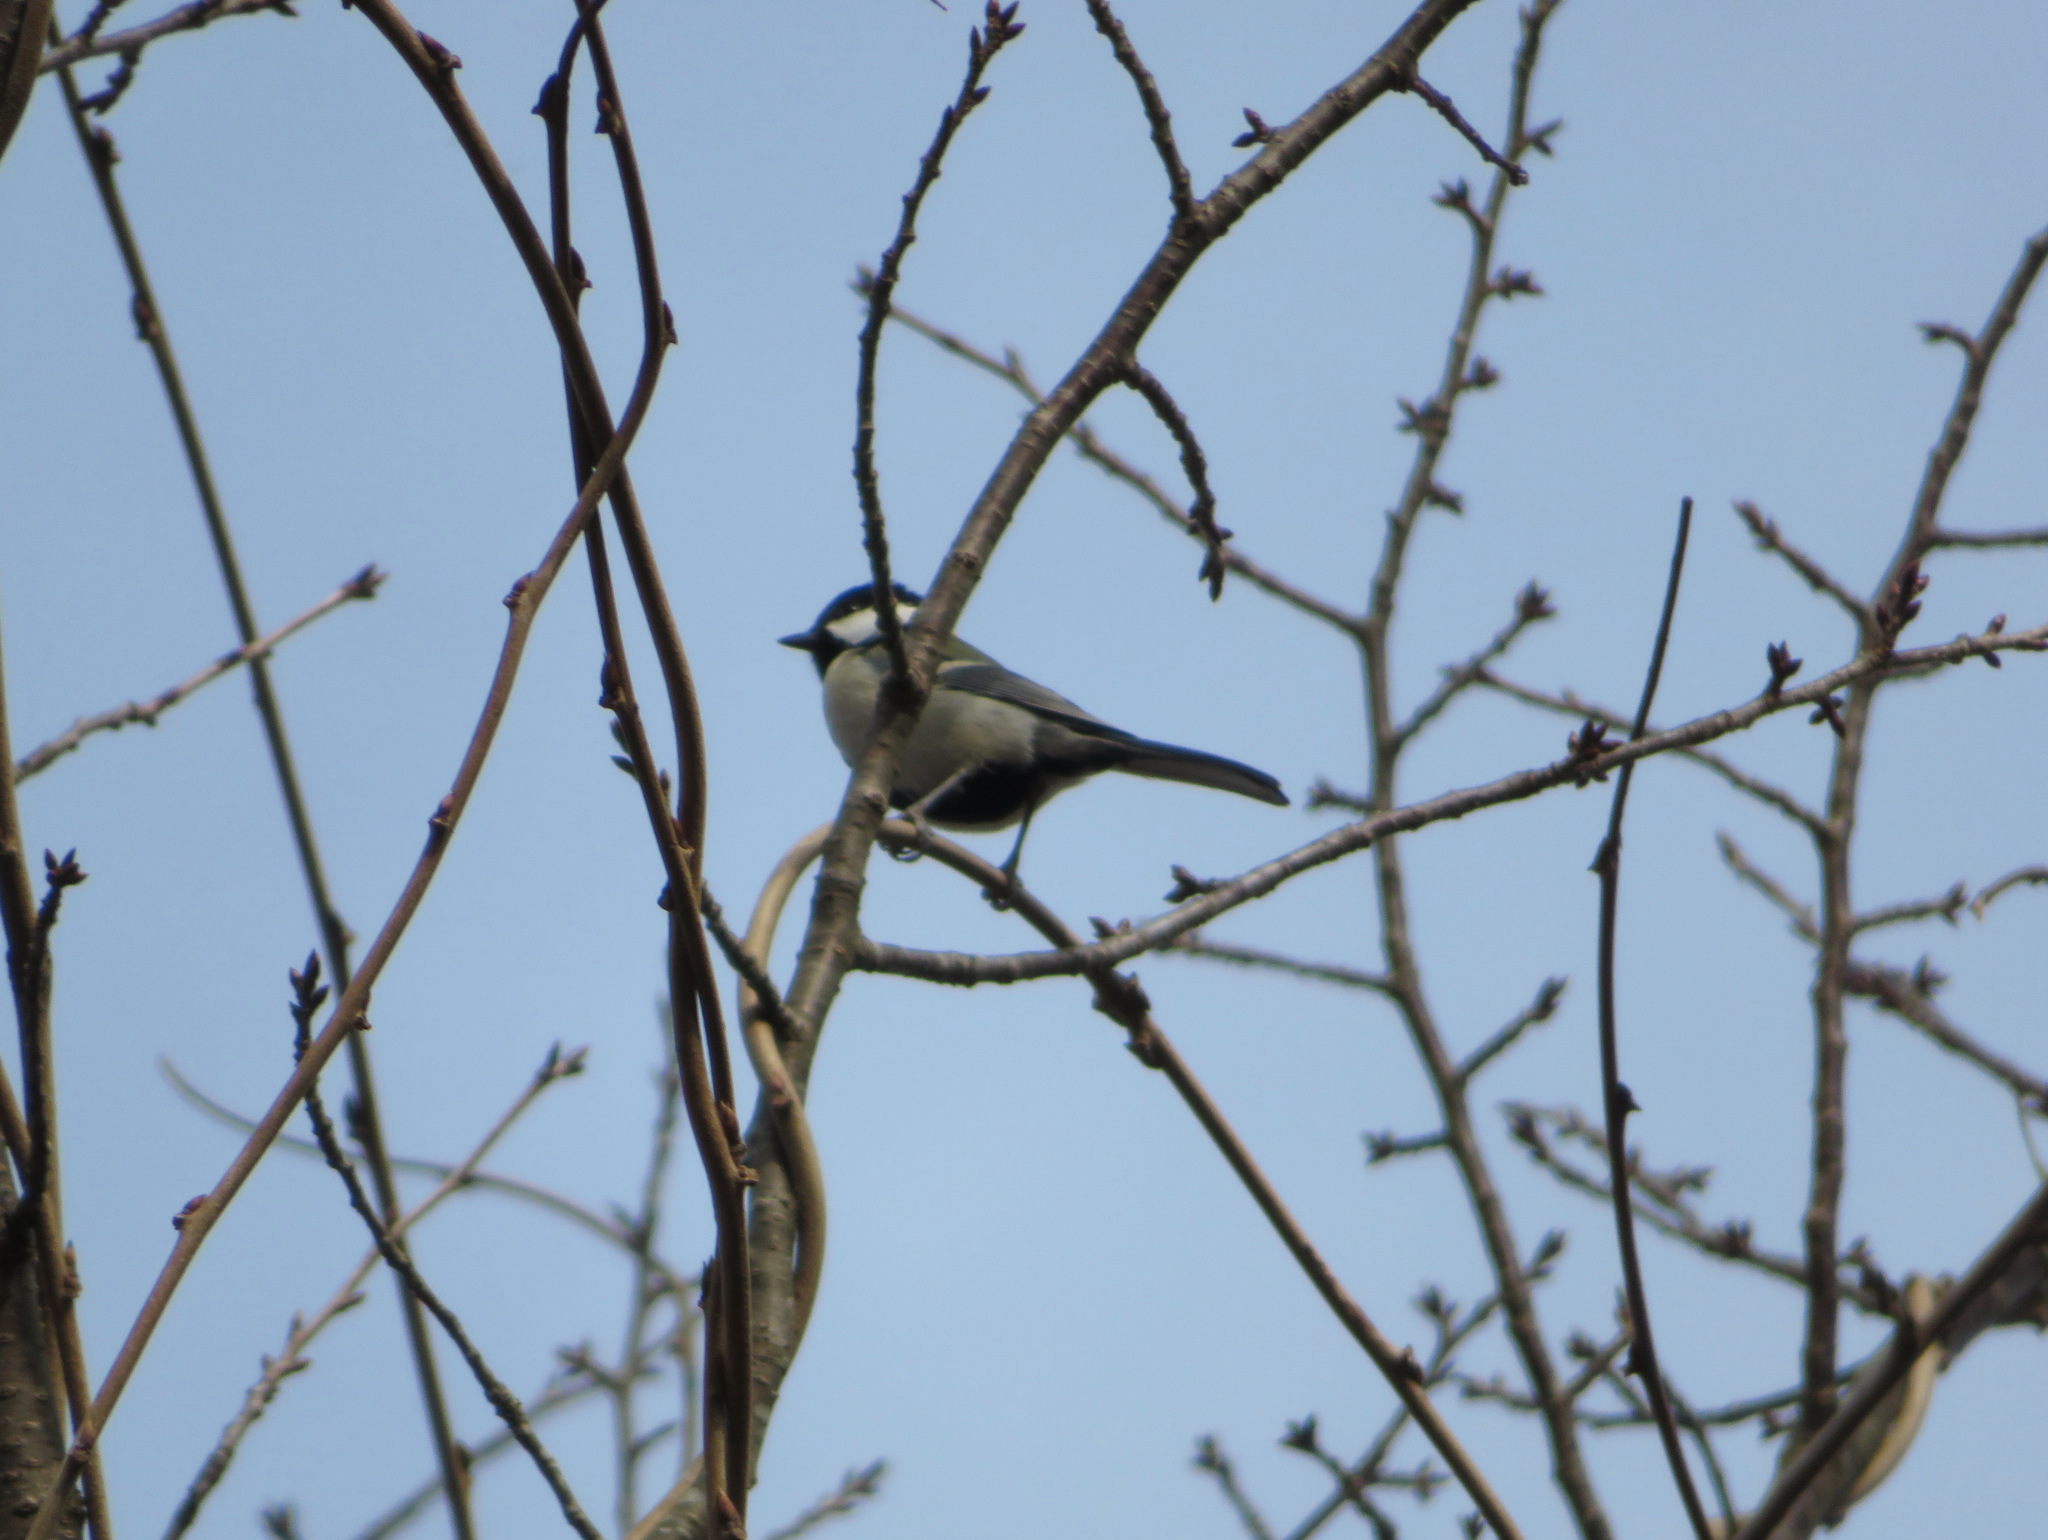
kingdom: Animalia
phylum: Chordata
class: Aves
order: Passeriformes
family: Paridae
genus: Parus
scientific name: Parus minor
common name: Japanese tit
